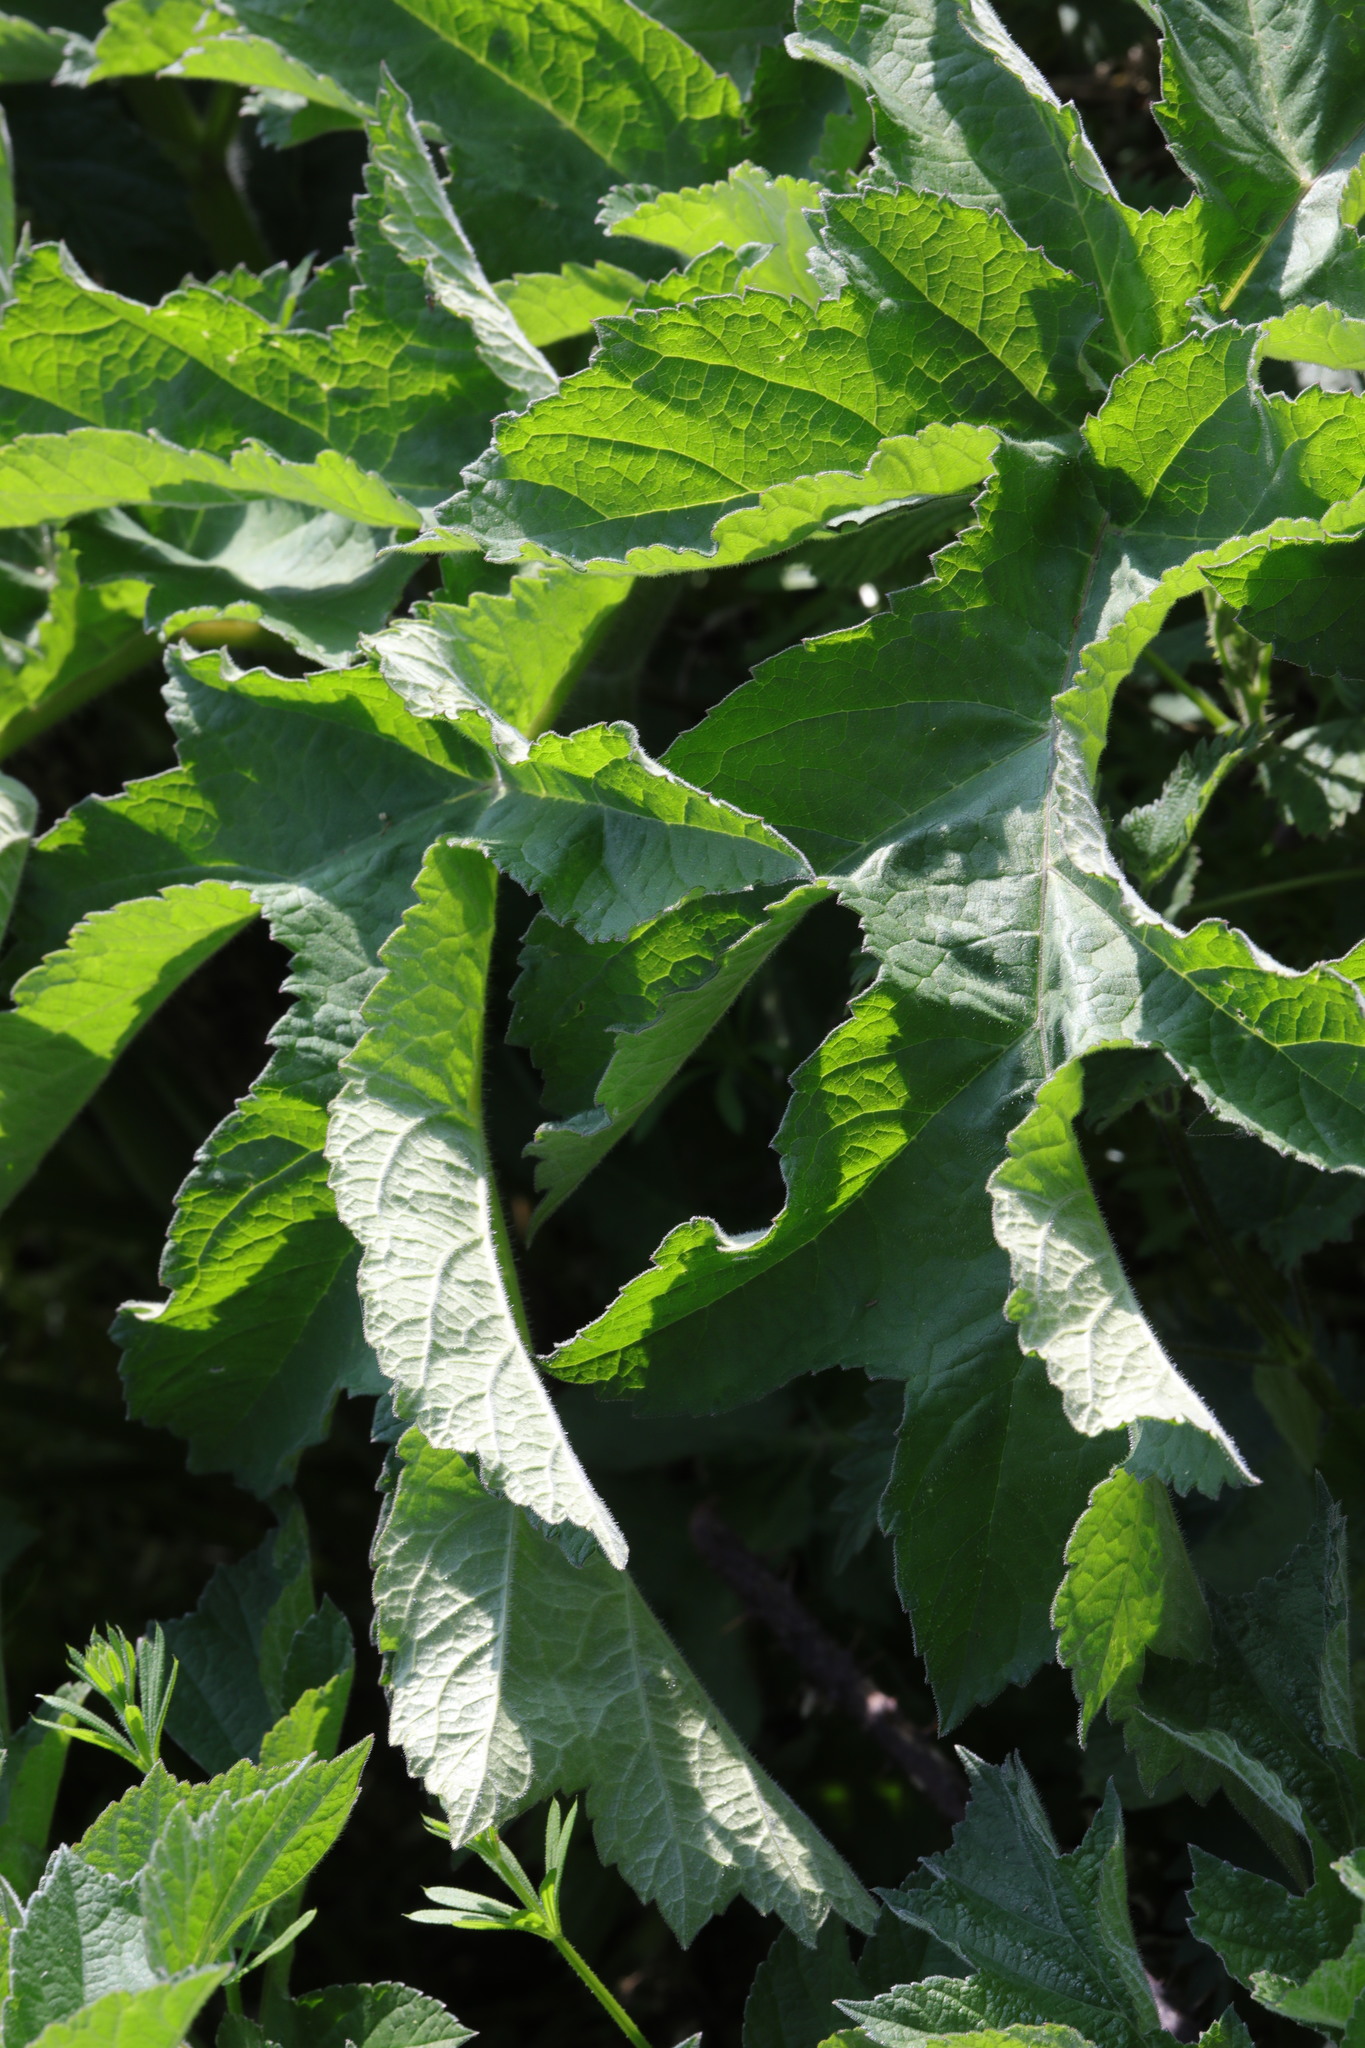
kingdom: Plantae
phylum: Tracheophyta
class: Magnoliopsida
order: Apiales
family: Apiaceae
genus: Heracleum
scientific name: Heracleum sphondylium
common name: Hogweed
